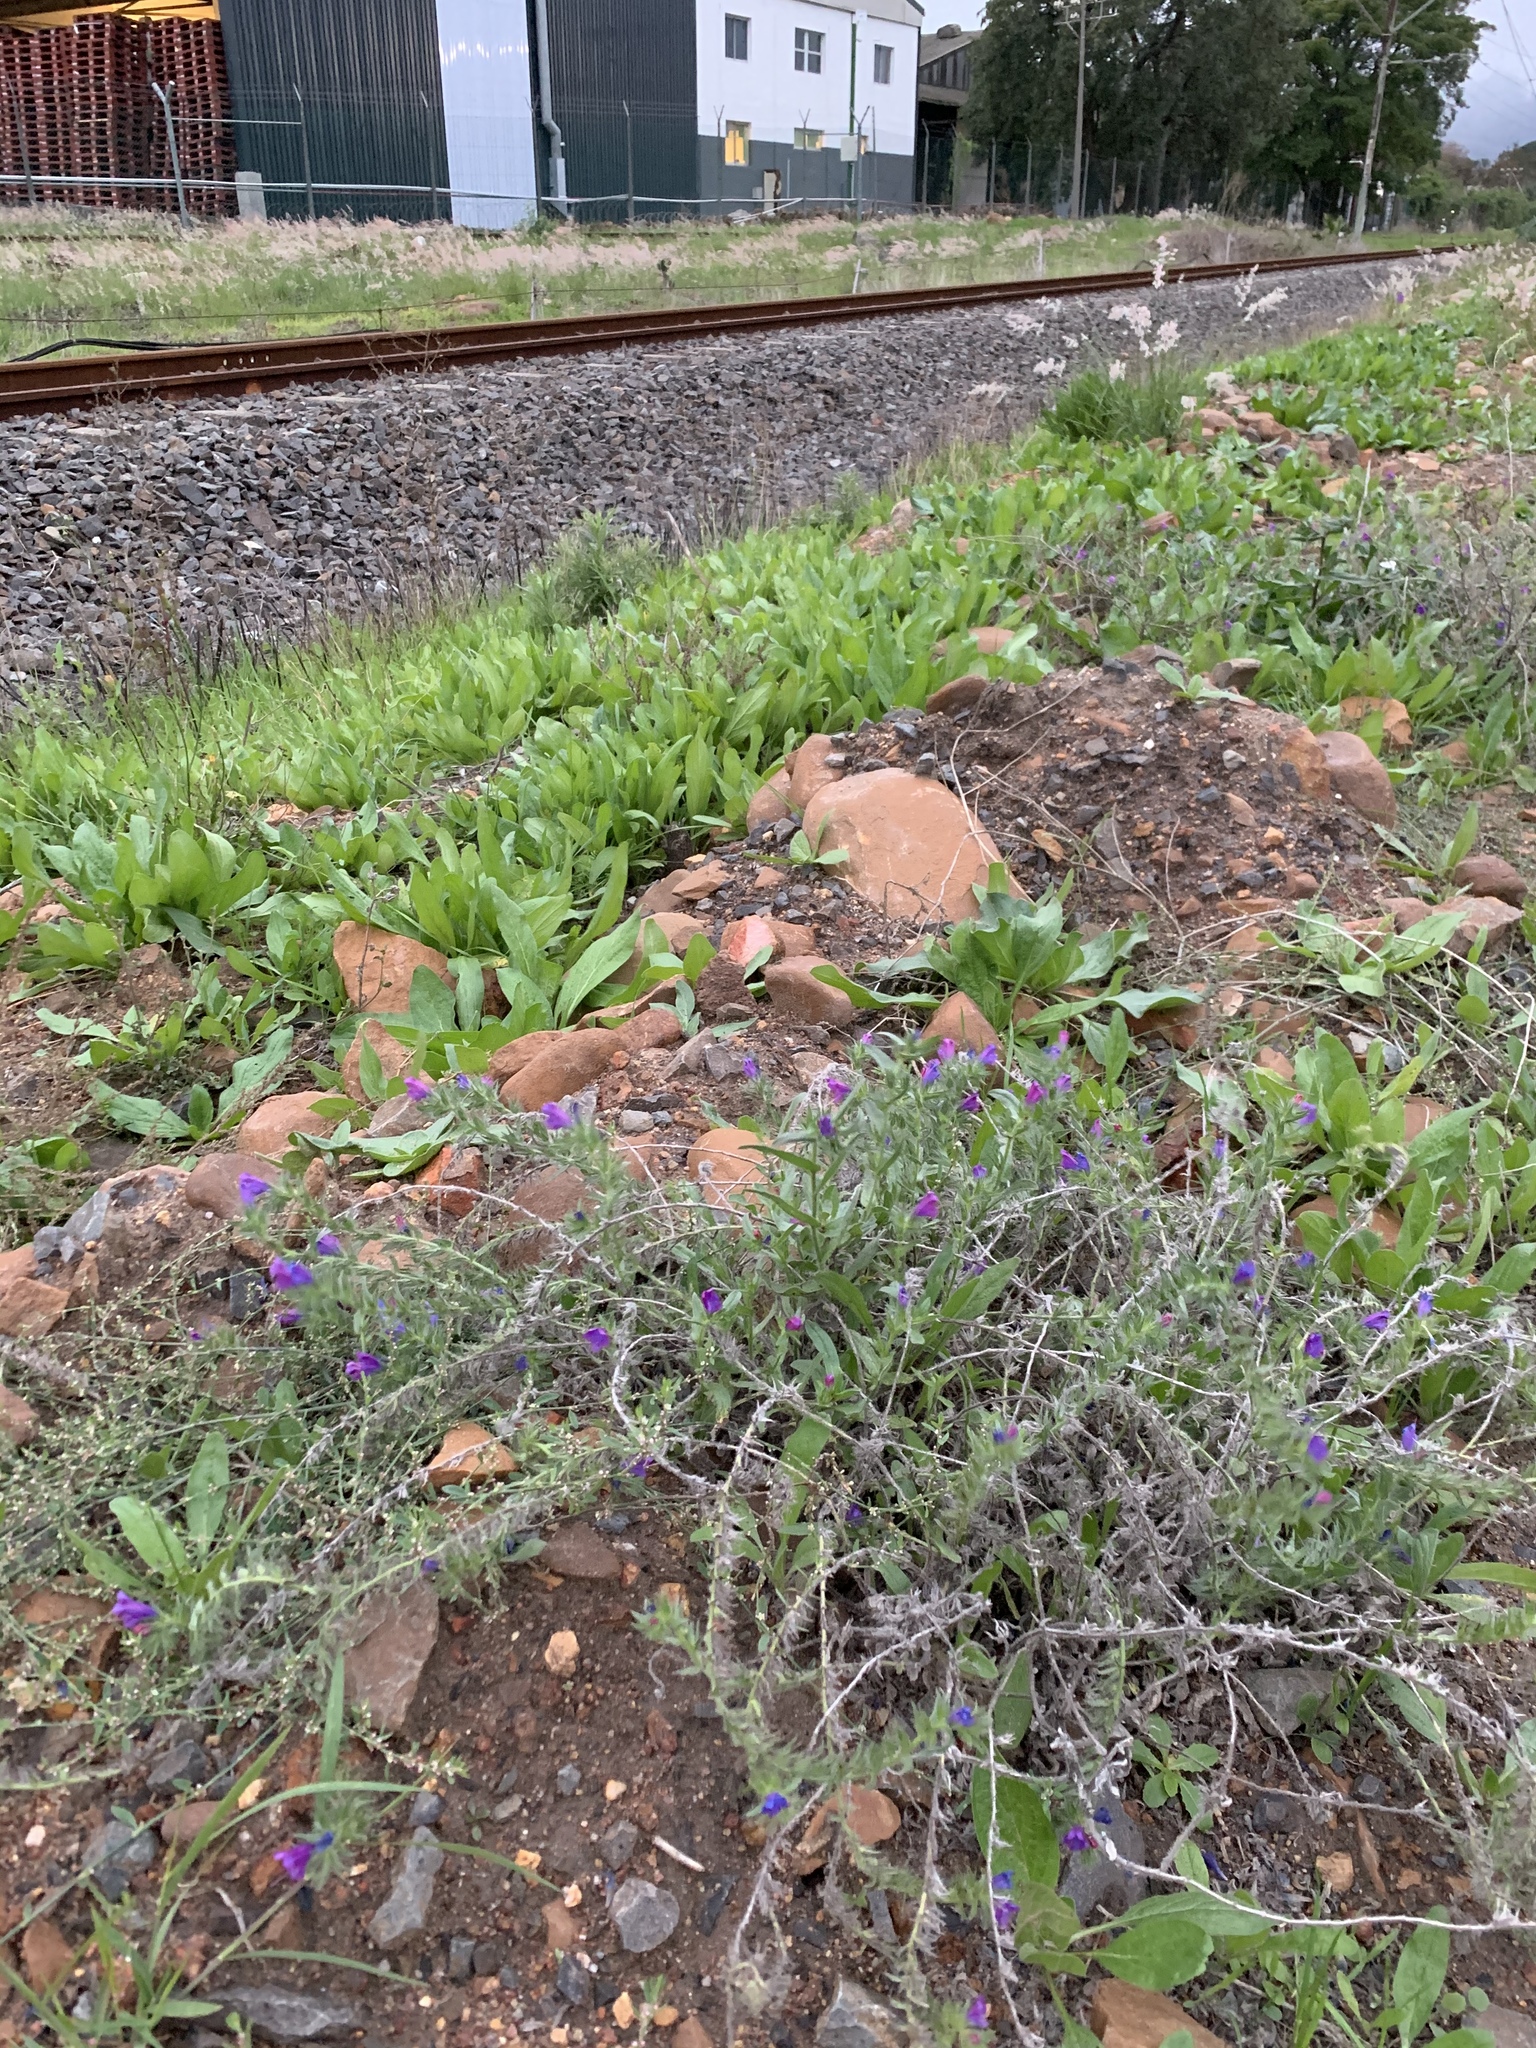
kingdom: Plantae
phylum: Tracheophyta
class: Magnoliopsida
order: Boraginales
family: Boraginaceae
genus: Echium
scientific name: Echium plantagineum
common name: Purple viper's-bugloss
